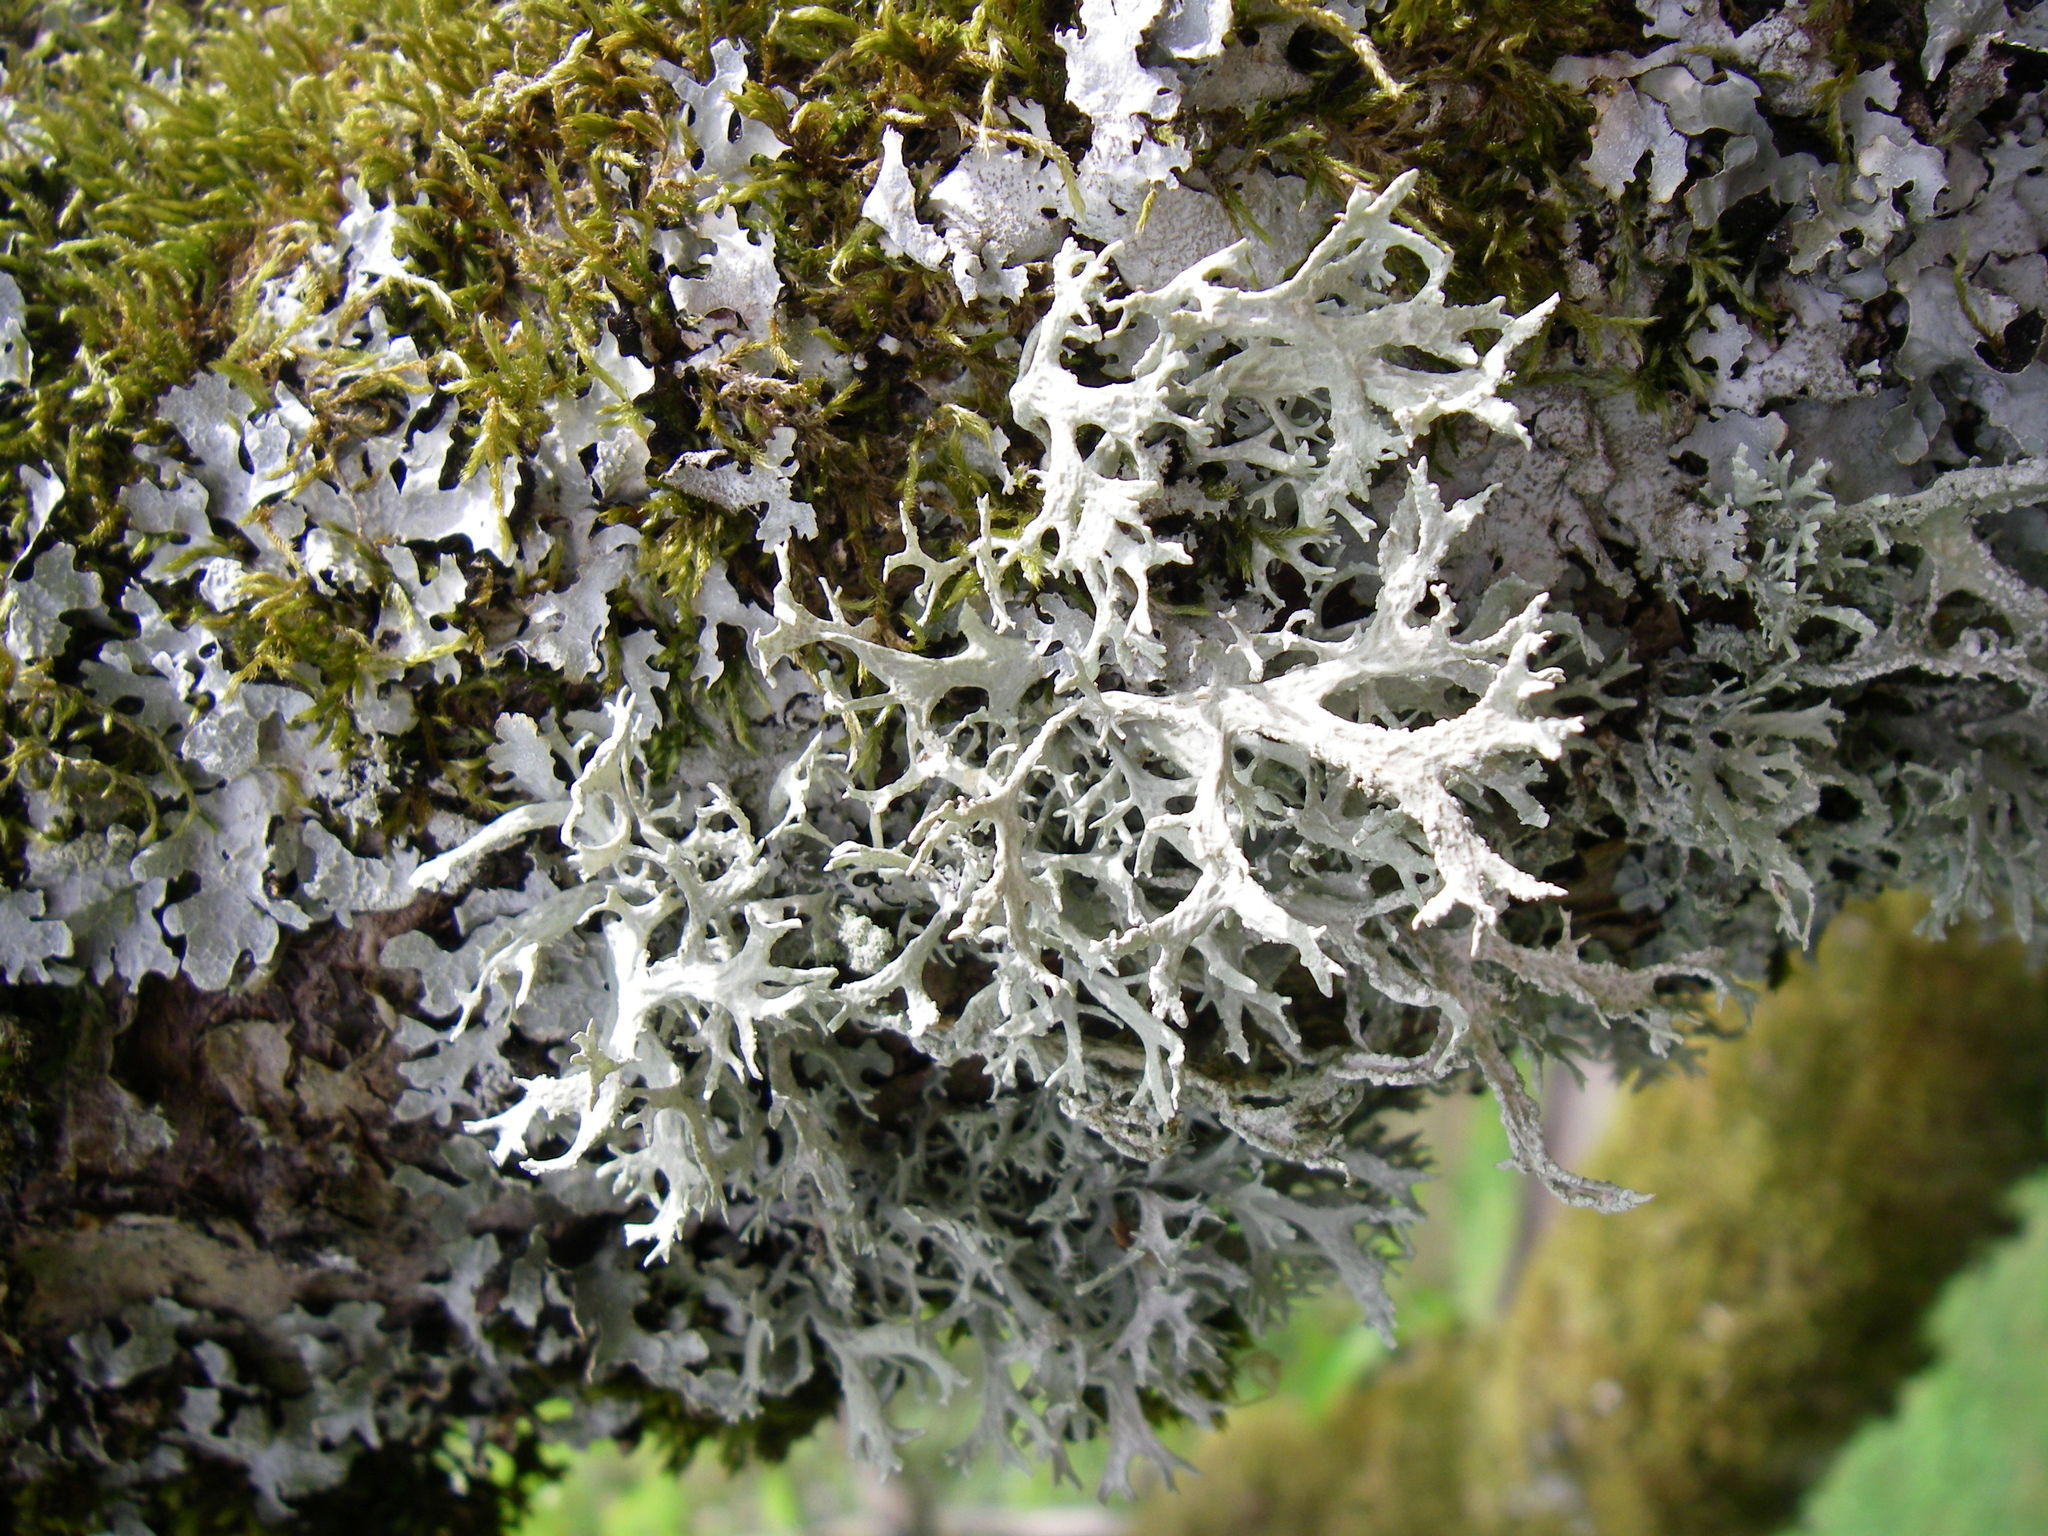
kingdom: Fungi
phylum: Ascomycota
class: Lecanoromycetes
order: Lecanorales
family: Parmeliaceae
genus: Evernia
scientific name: Evernia prunastri
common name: Oak moss
